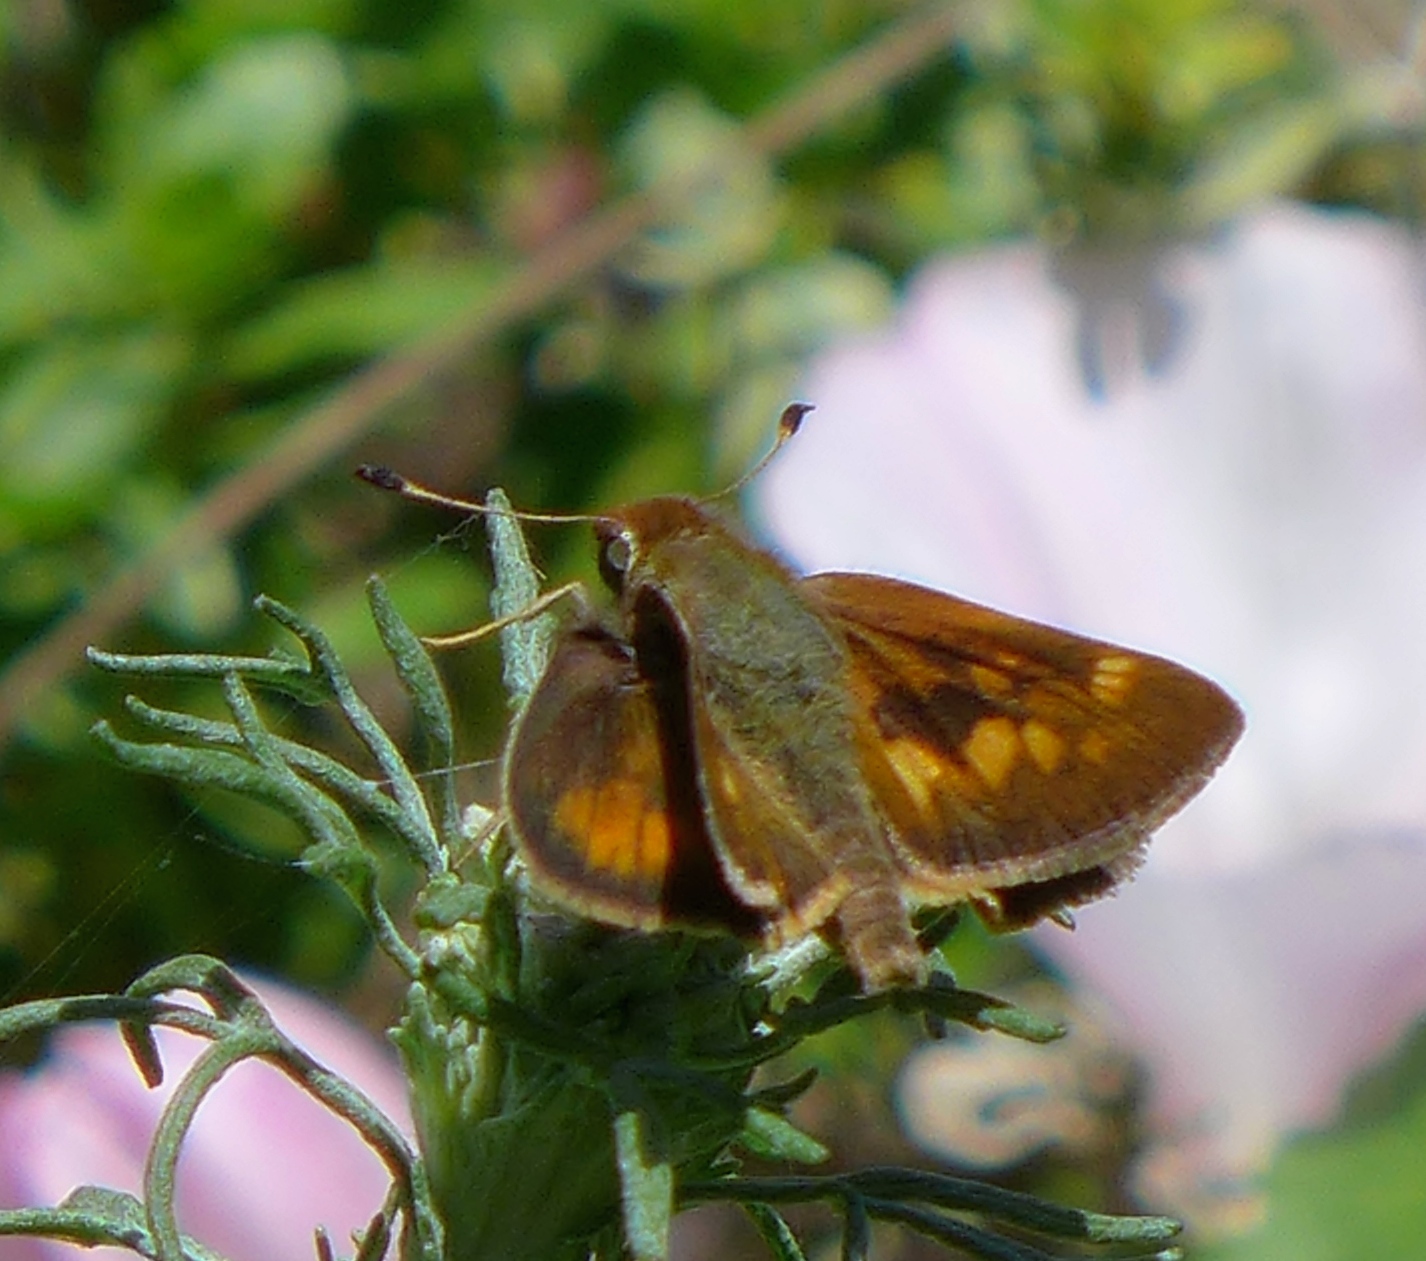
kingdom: Animalia
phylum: Arthropoda
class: Insecta
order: Lepidoptera
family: Hesperiidae
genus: Lon
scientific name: Lon melane
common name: Umber skipper
